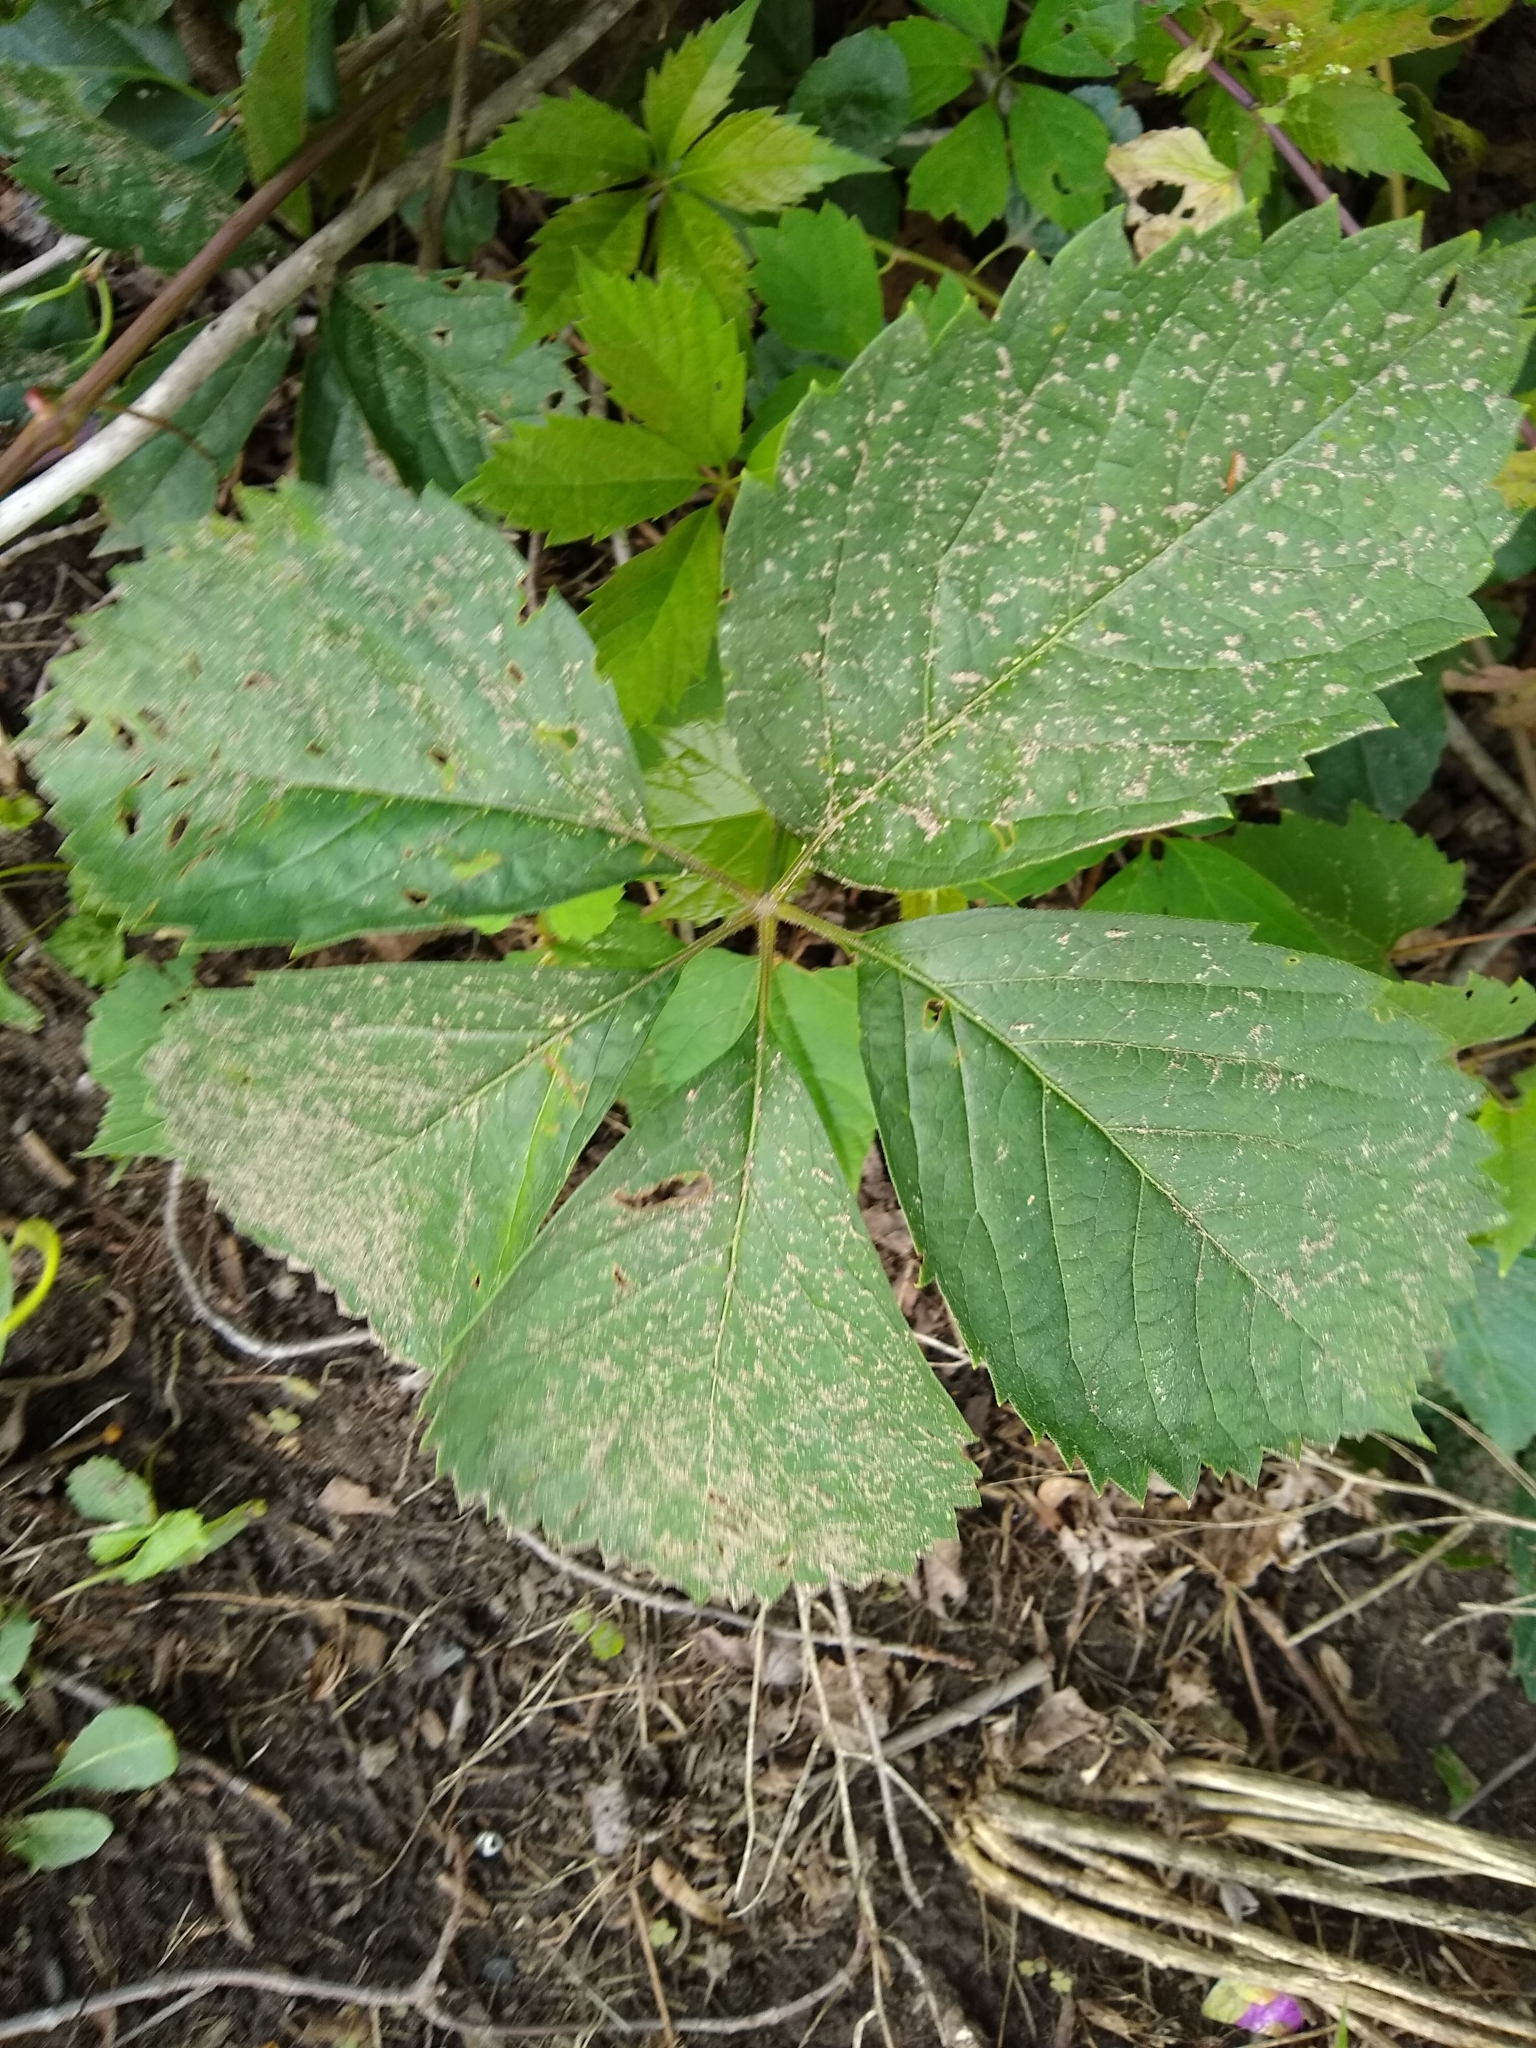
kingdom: Plantae
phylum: Tracheophyta
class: Magnoliopsida
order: Vitales
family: Vitaceae
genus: Parthenocissus
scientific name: Parthenocissus inserta
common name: False virginia-creeper
